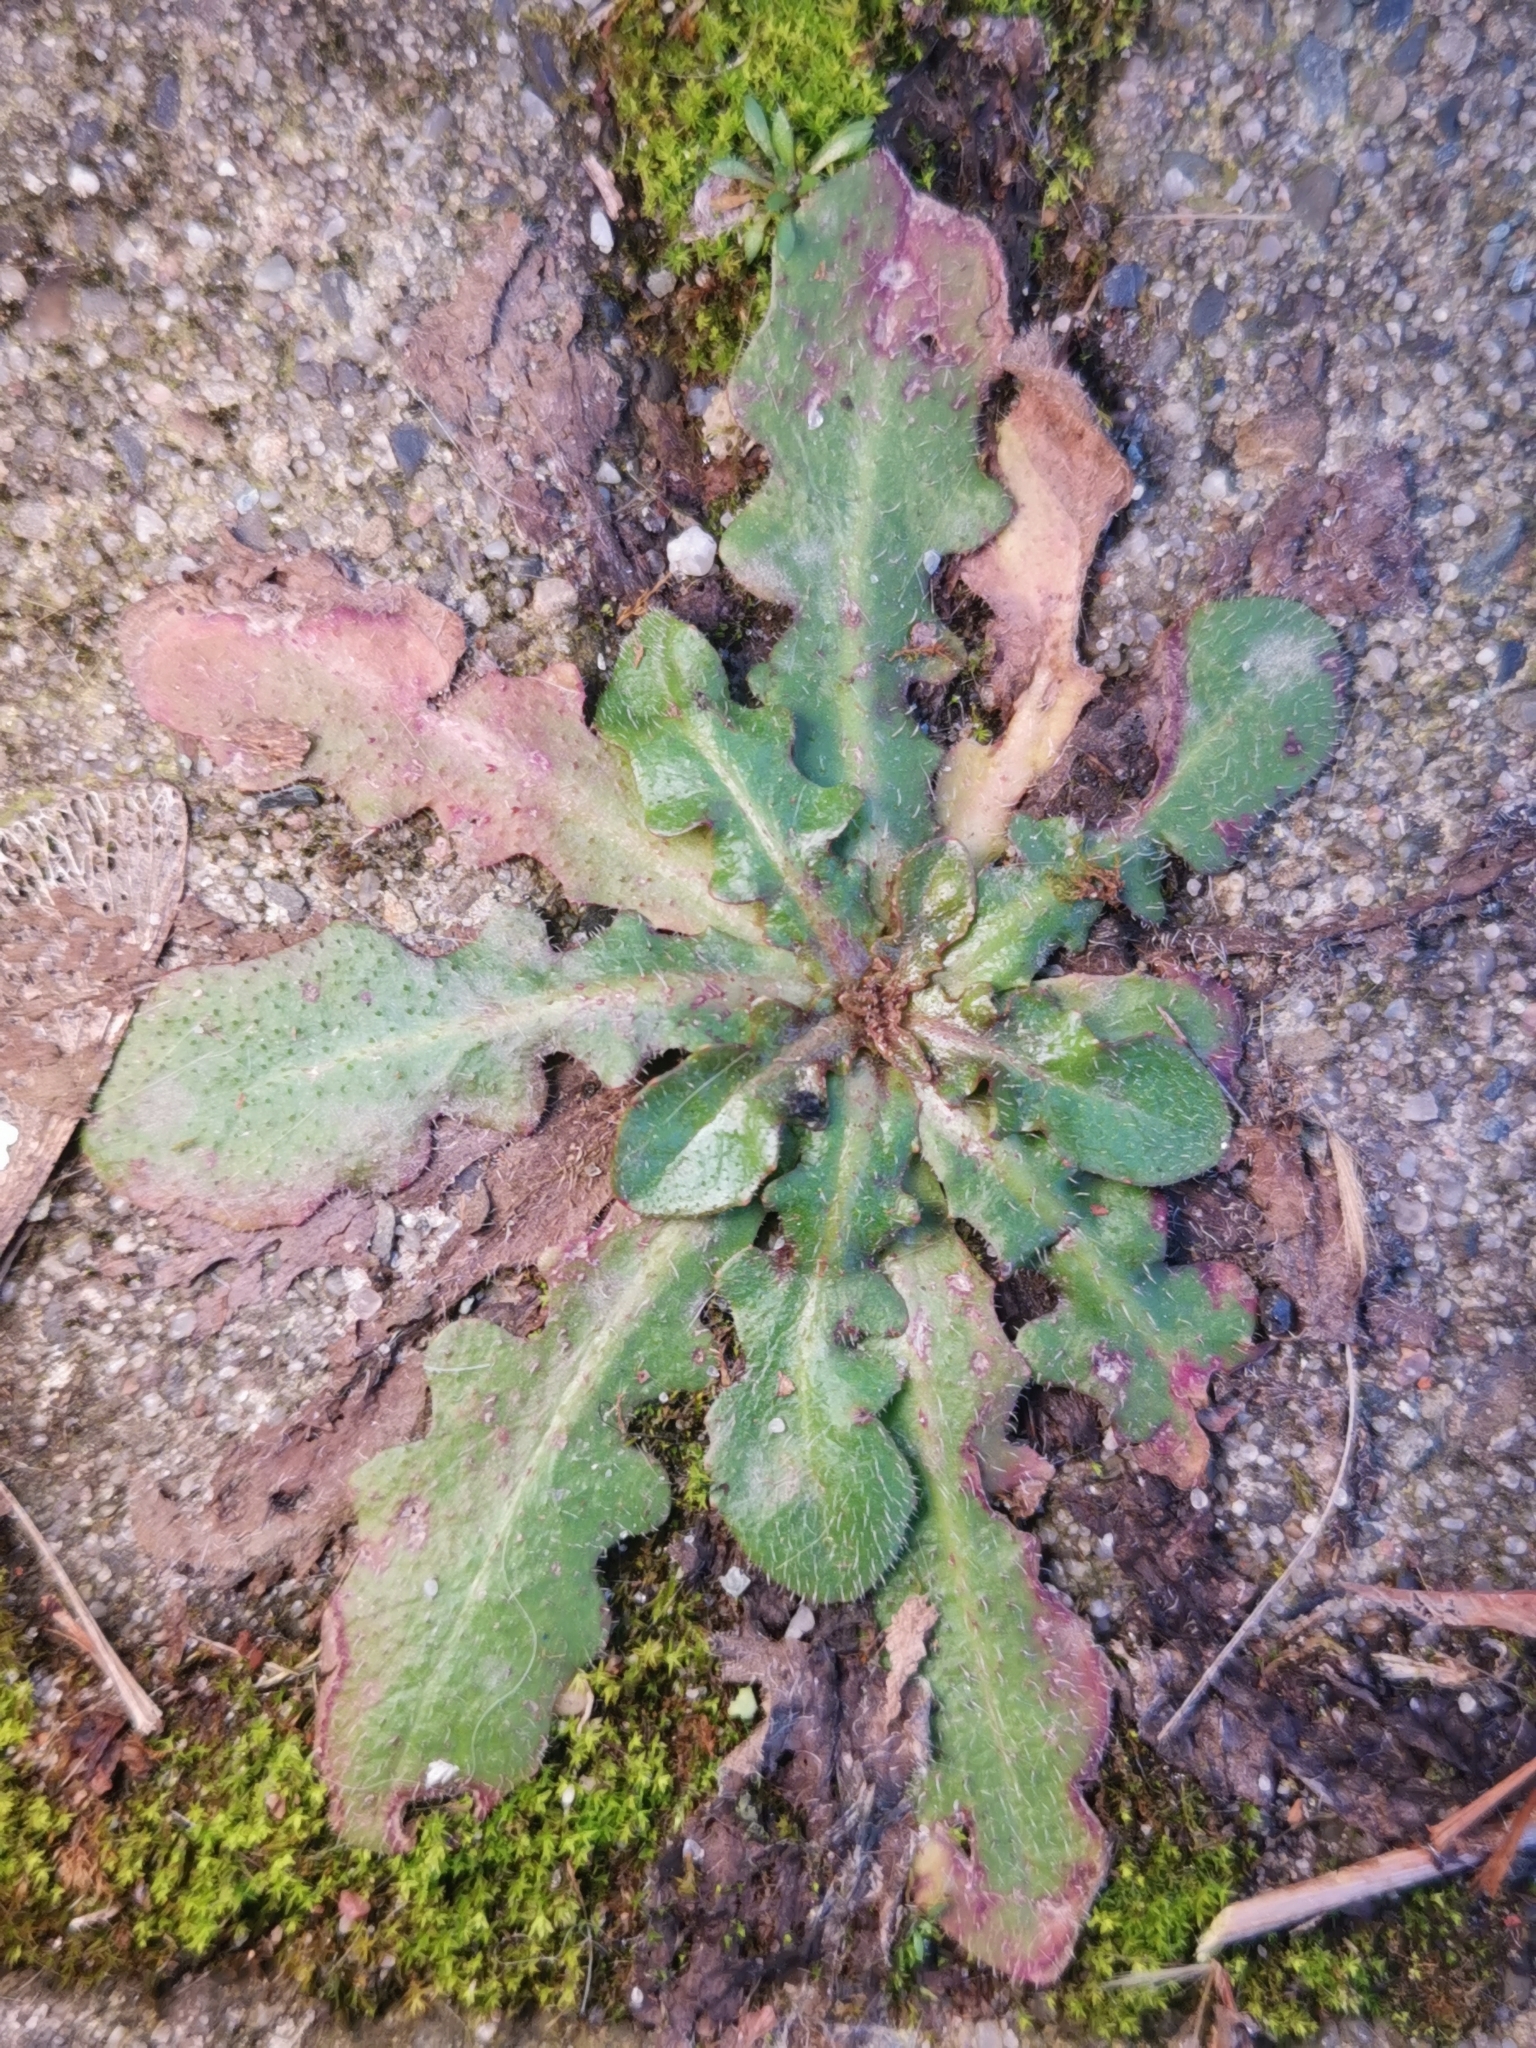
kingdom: Plantae
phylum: Tracheophyta
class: Magnoliopsida
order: Asterales
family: Asteraceae
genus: Hypochaeris
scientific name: Hypochaeris radicata
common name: Flatweed
